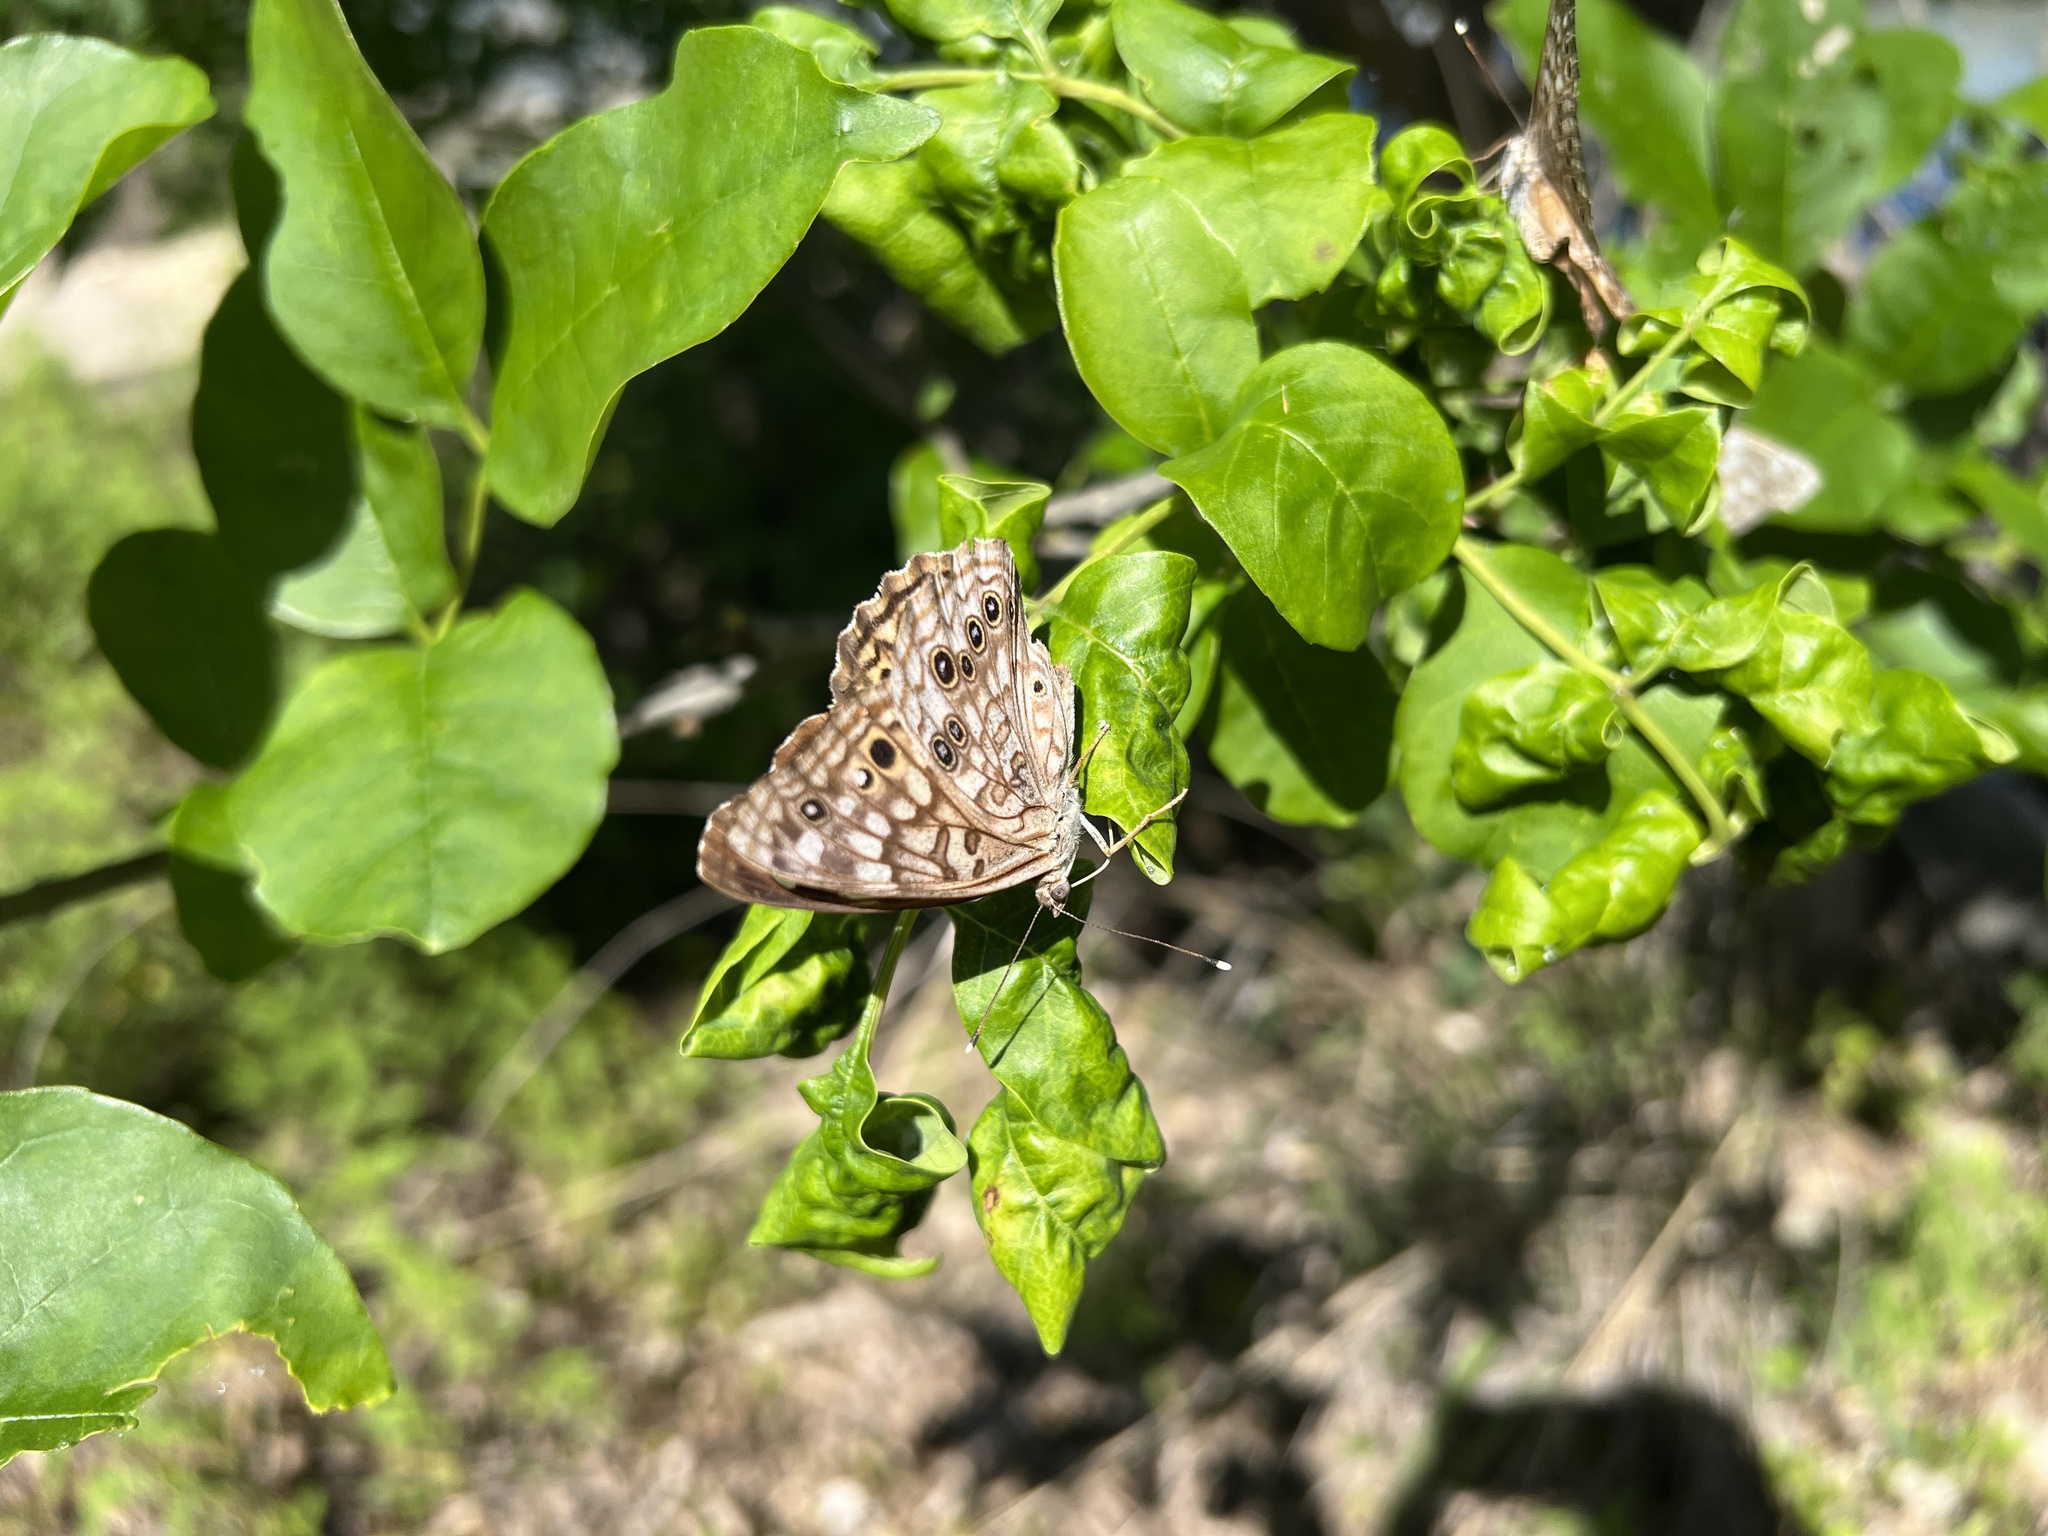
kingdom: Animalia
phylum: Arthropoda
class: Insecta
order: Lepidoptera
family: Nymphalidae
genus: Asterocampa
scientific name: Asterocampa celtis
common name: Hackberry emperor
